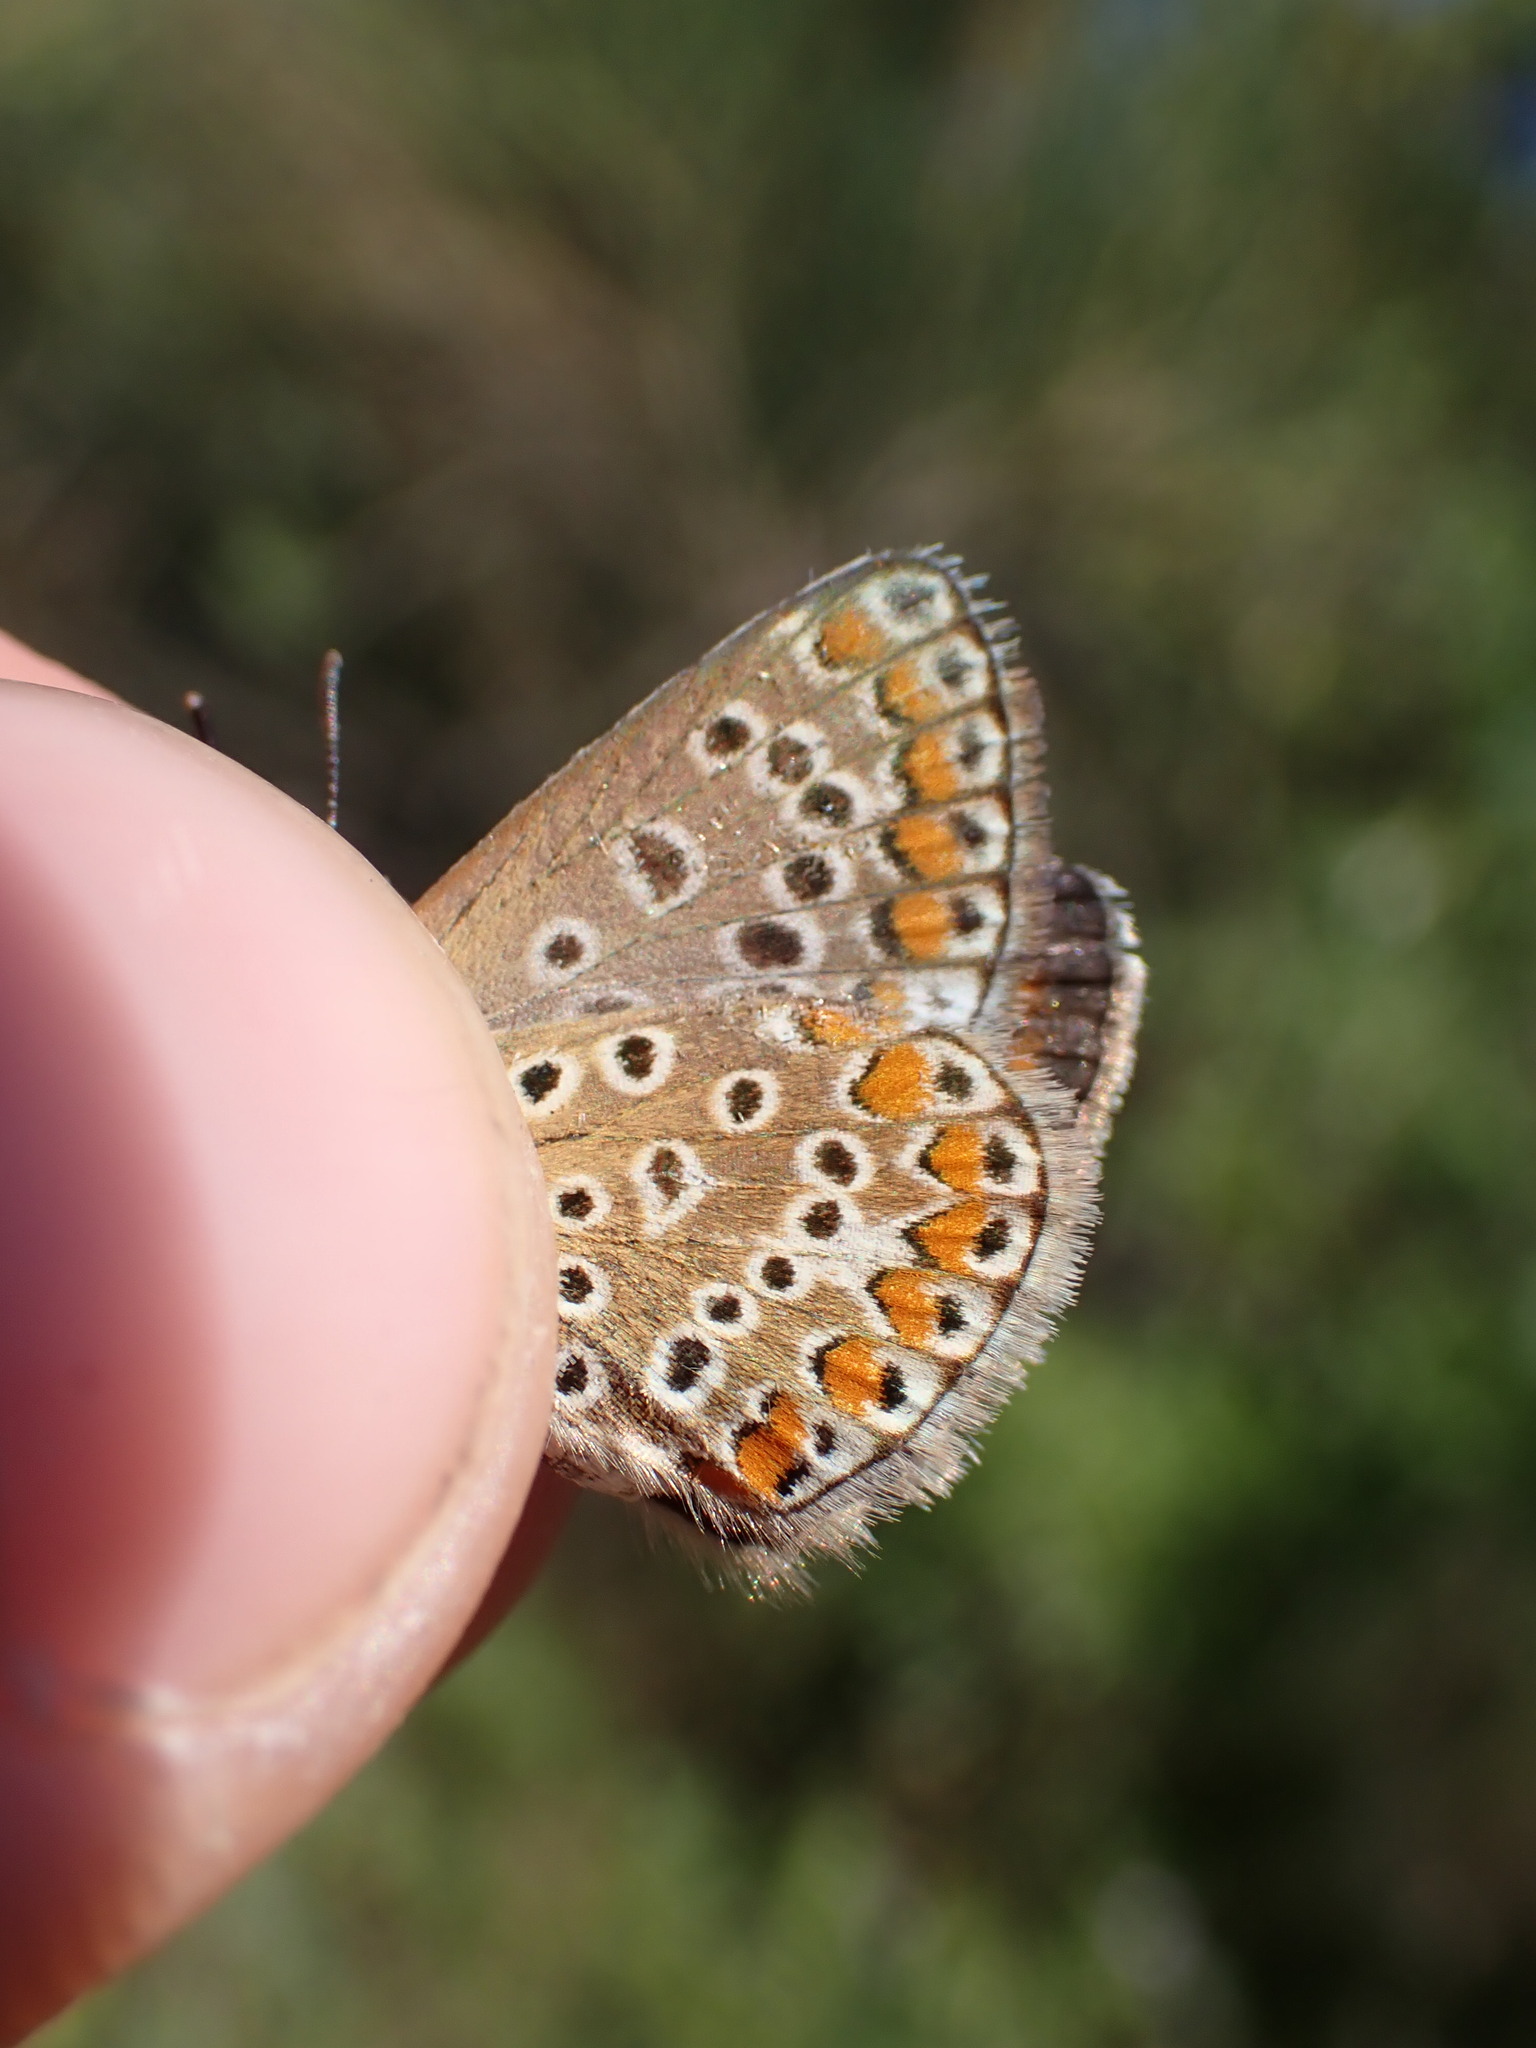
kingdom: Animalia
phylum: Arthropoda
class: Insecta
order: Lepidoptera
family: Lycaenidae
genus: Polyommatus
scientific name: Polyommatus icarus
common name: Common blue
